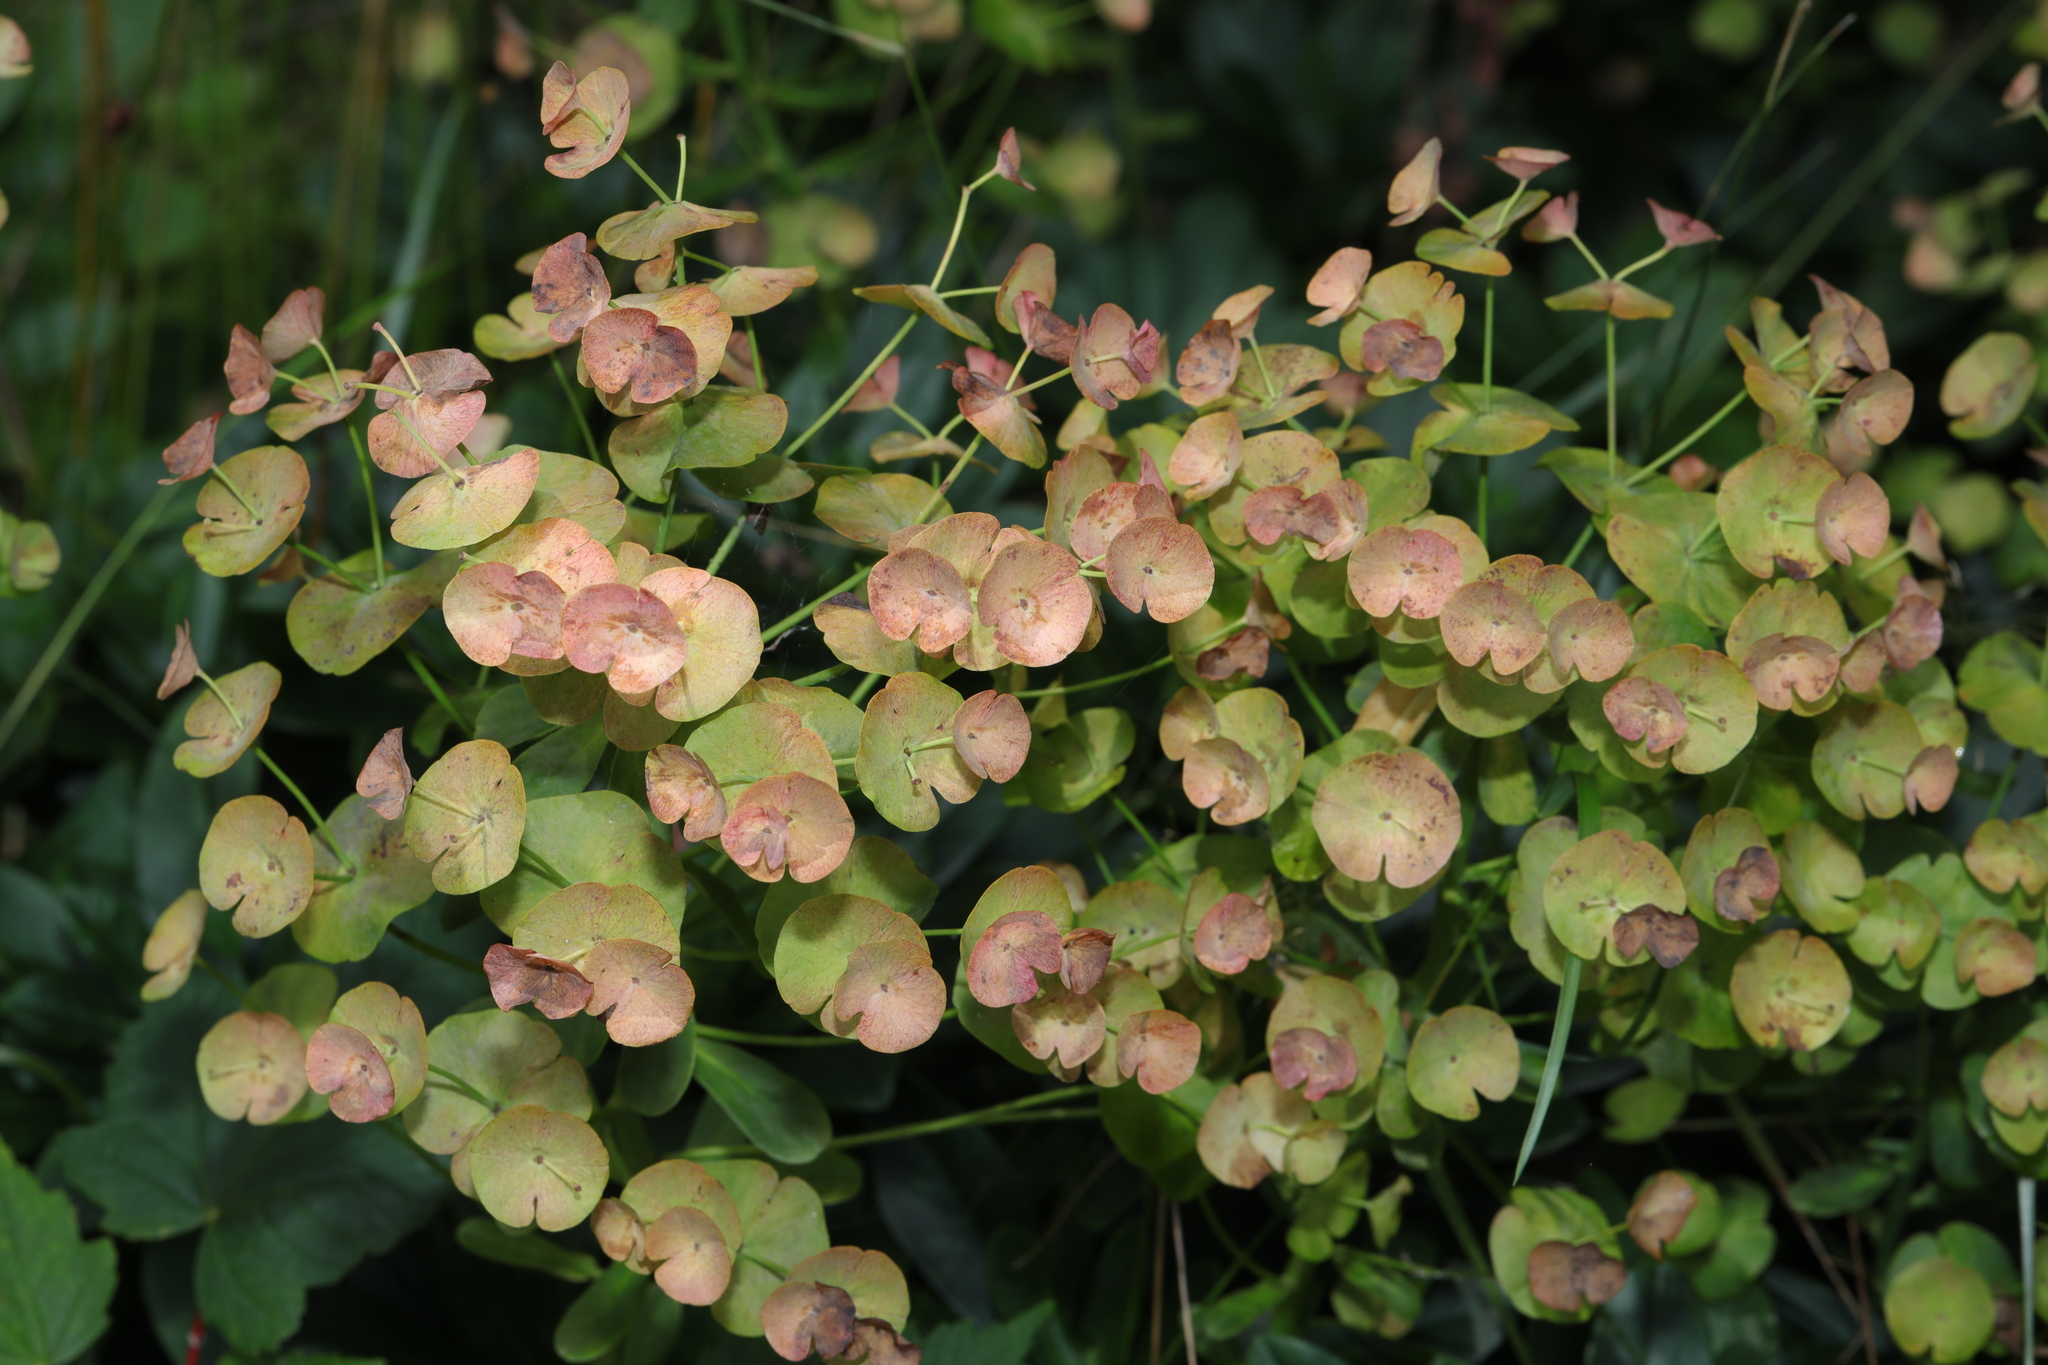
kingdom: Plantae
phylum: Tracheophyta
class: Magnoliopsida
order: Malpighiales
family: Euphorbiaceae
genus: Euphorbia
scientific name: Euphorbia amygdaloides
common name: Wood spurge
